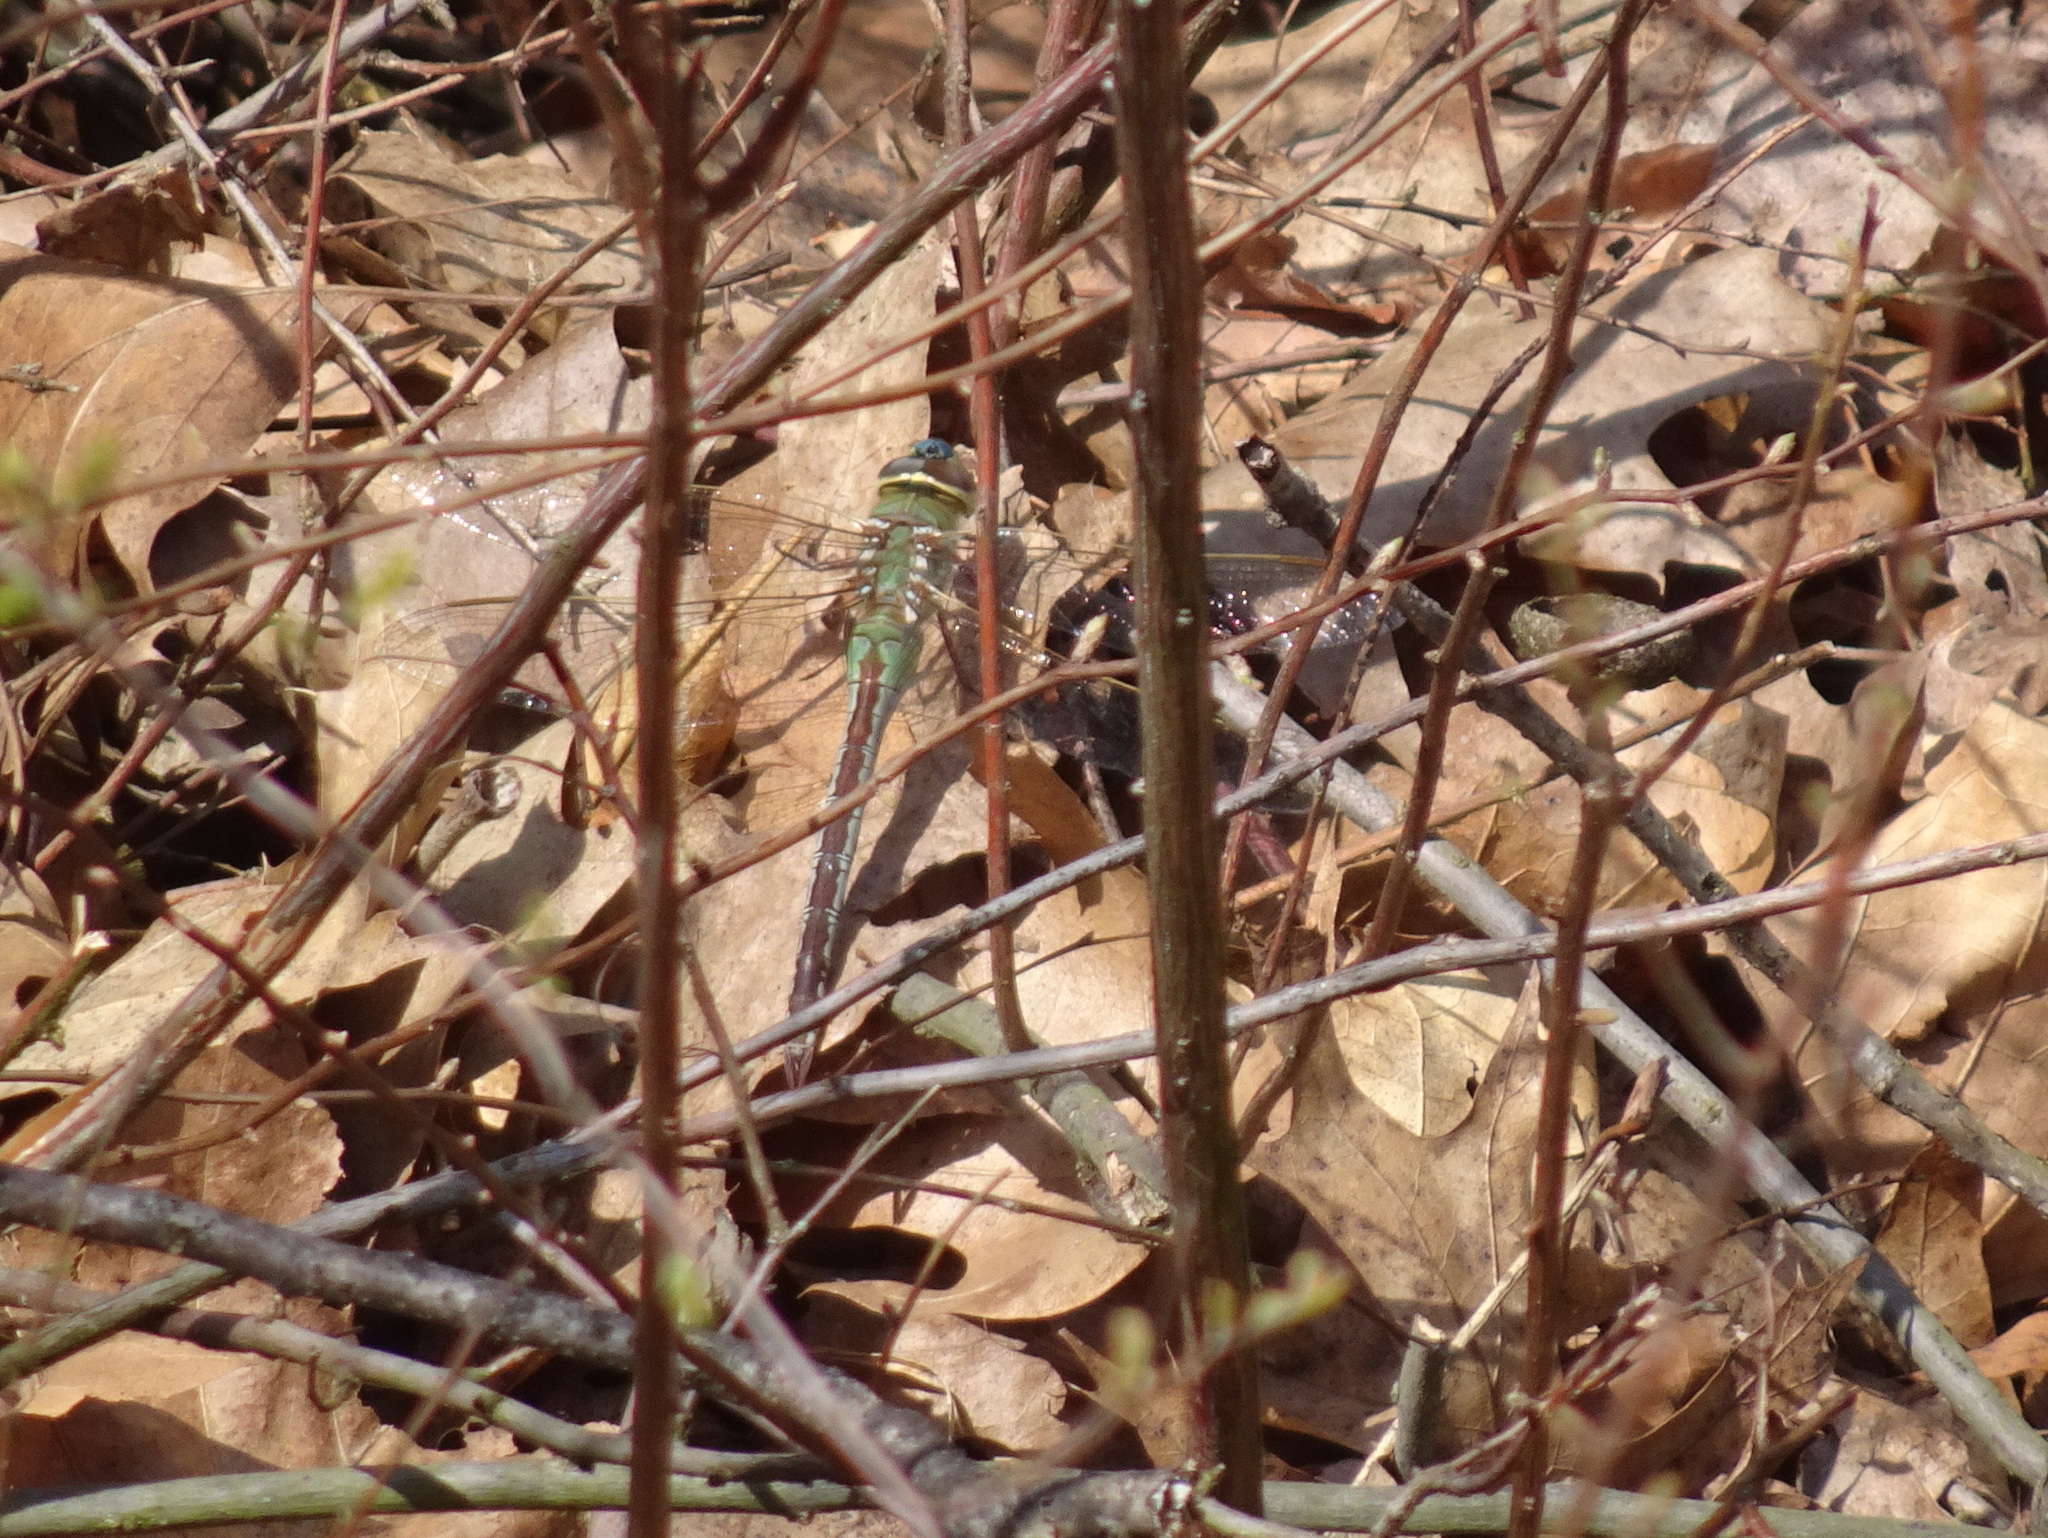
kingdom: Animalia
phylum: Arthropoda
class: Insecta
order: Odonata
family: Aeshnidae
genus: Anax
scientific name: Anax junius
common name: Common green darner
